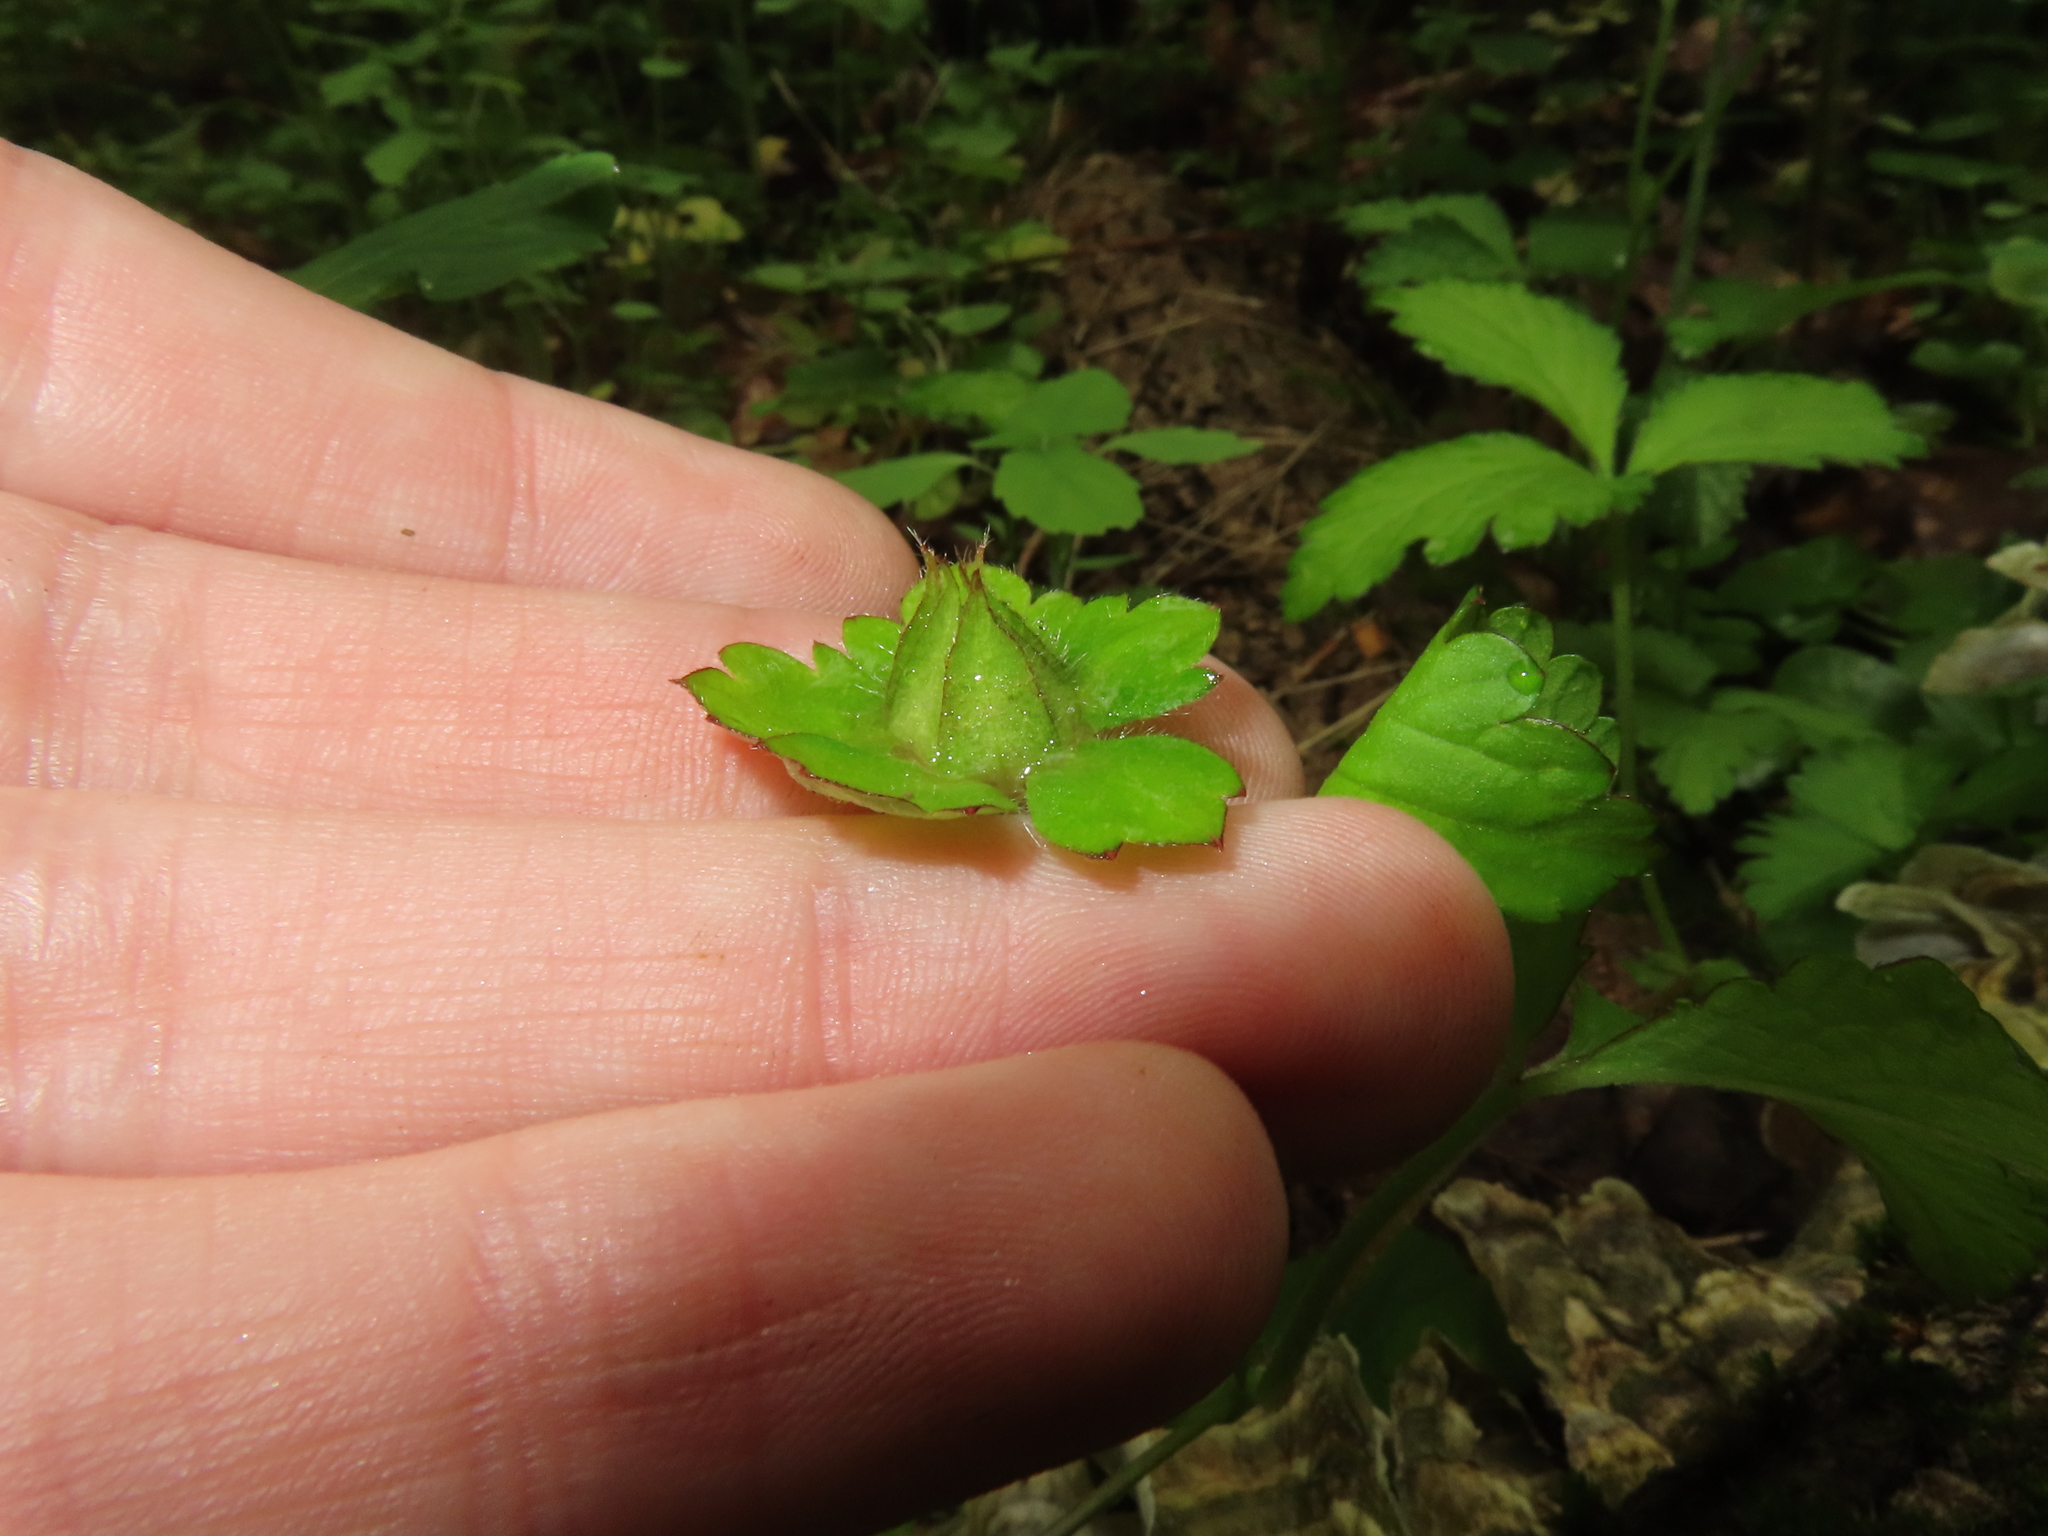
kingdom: Plantae
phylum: Tracheophyta
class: Magnoliopsida
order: Rosales
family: Rosaceae
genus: Potentilla
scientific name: Potentilla indica
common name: Yellow-flowered strawberry
